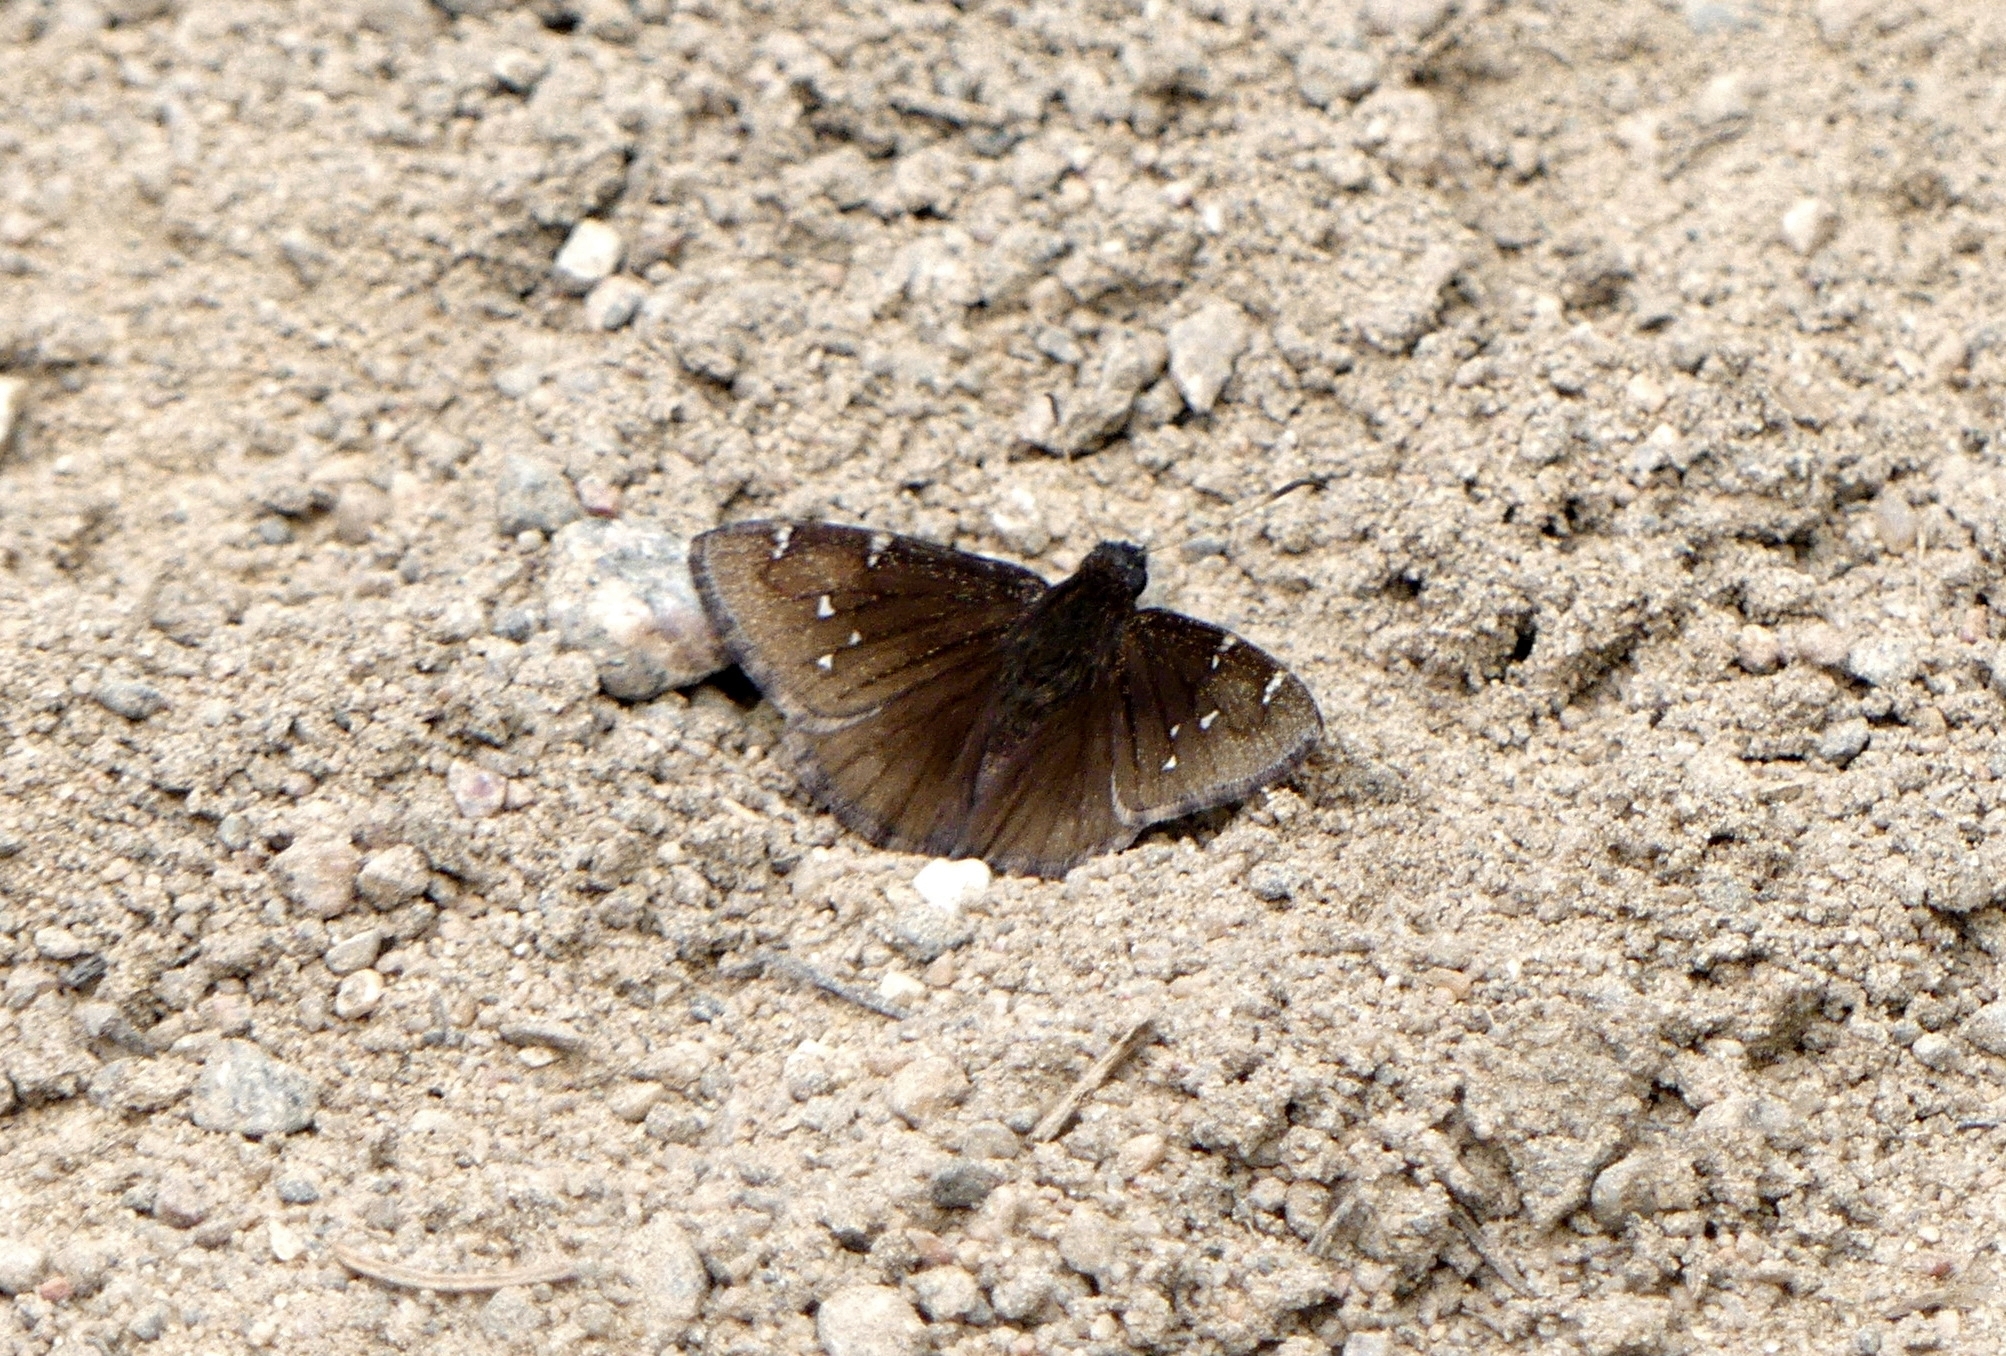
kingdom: Animalia
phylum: Arthropoda
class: Insecta
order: Lepidoptera
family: Hesperiidae
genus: Thorybes
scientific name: Thorybes pylades
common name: Northern cloudywing
